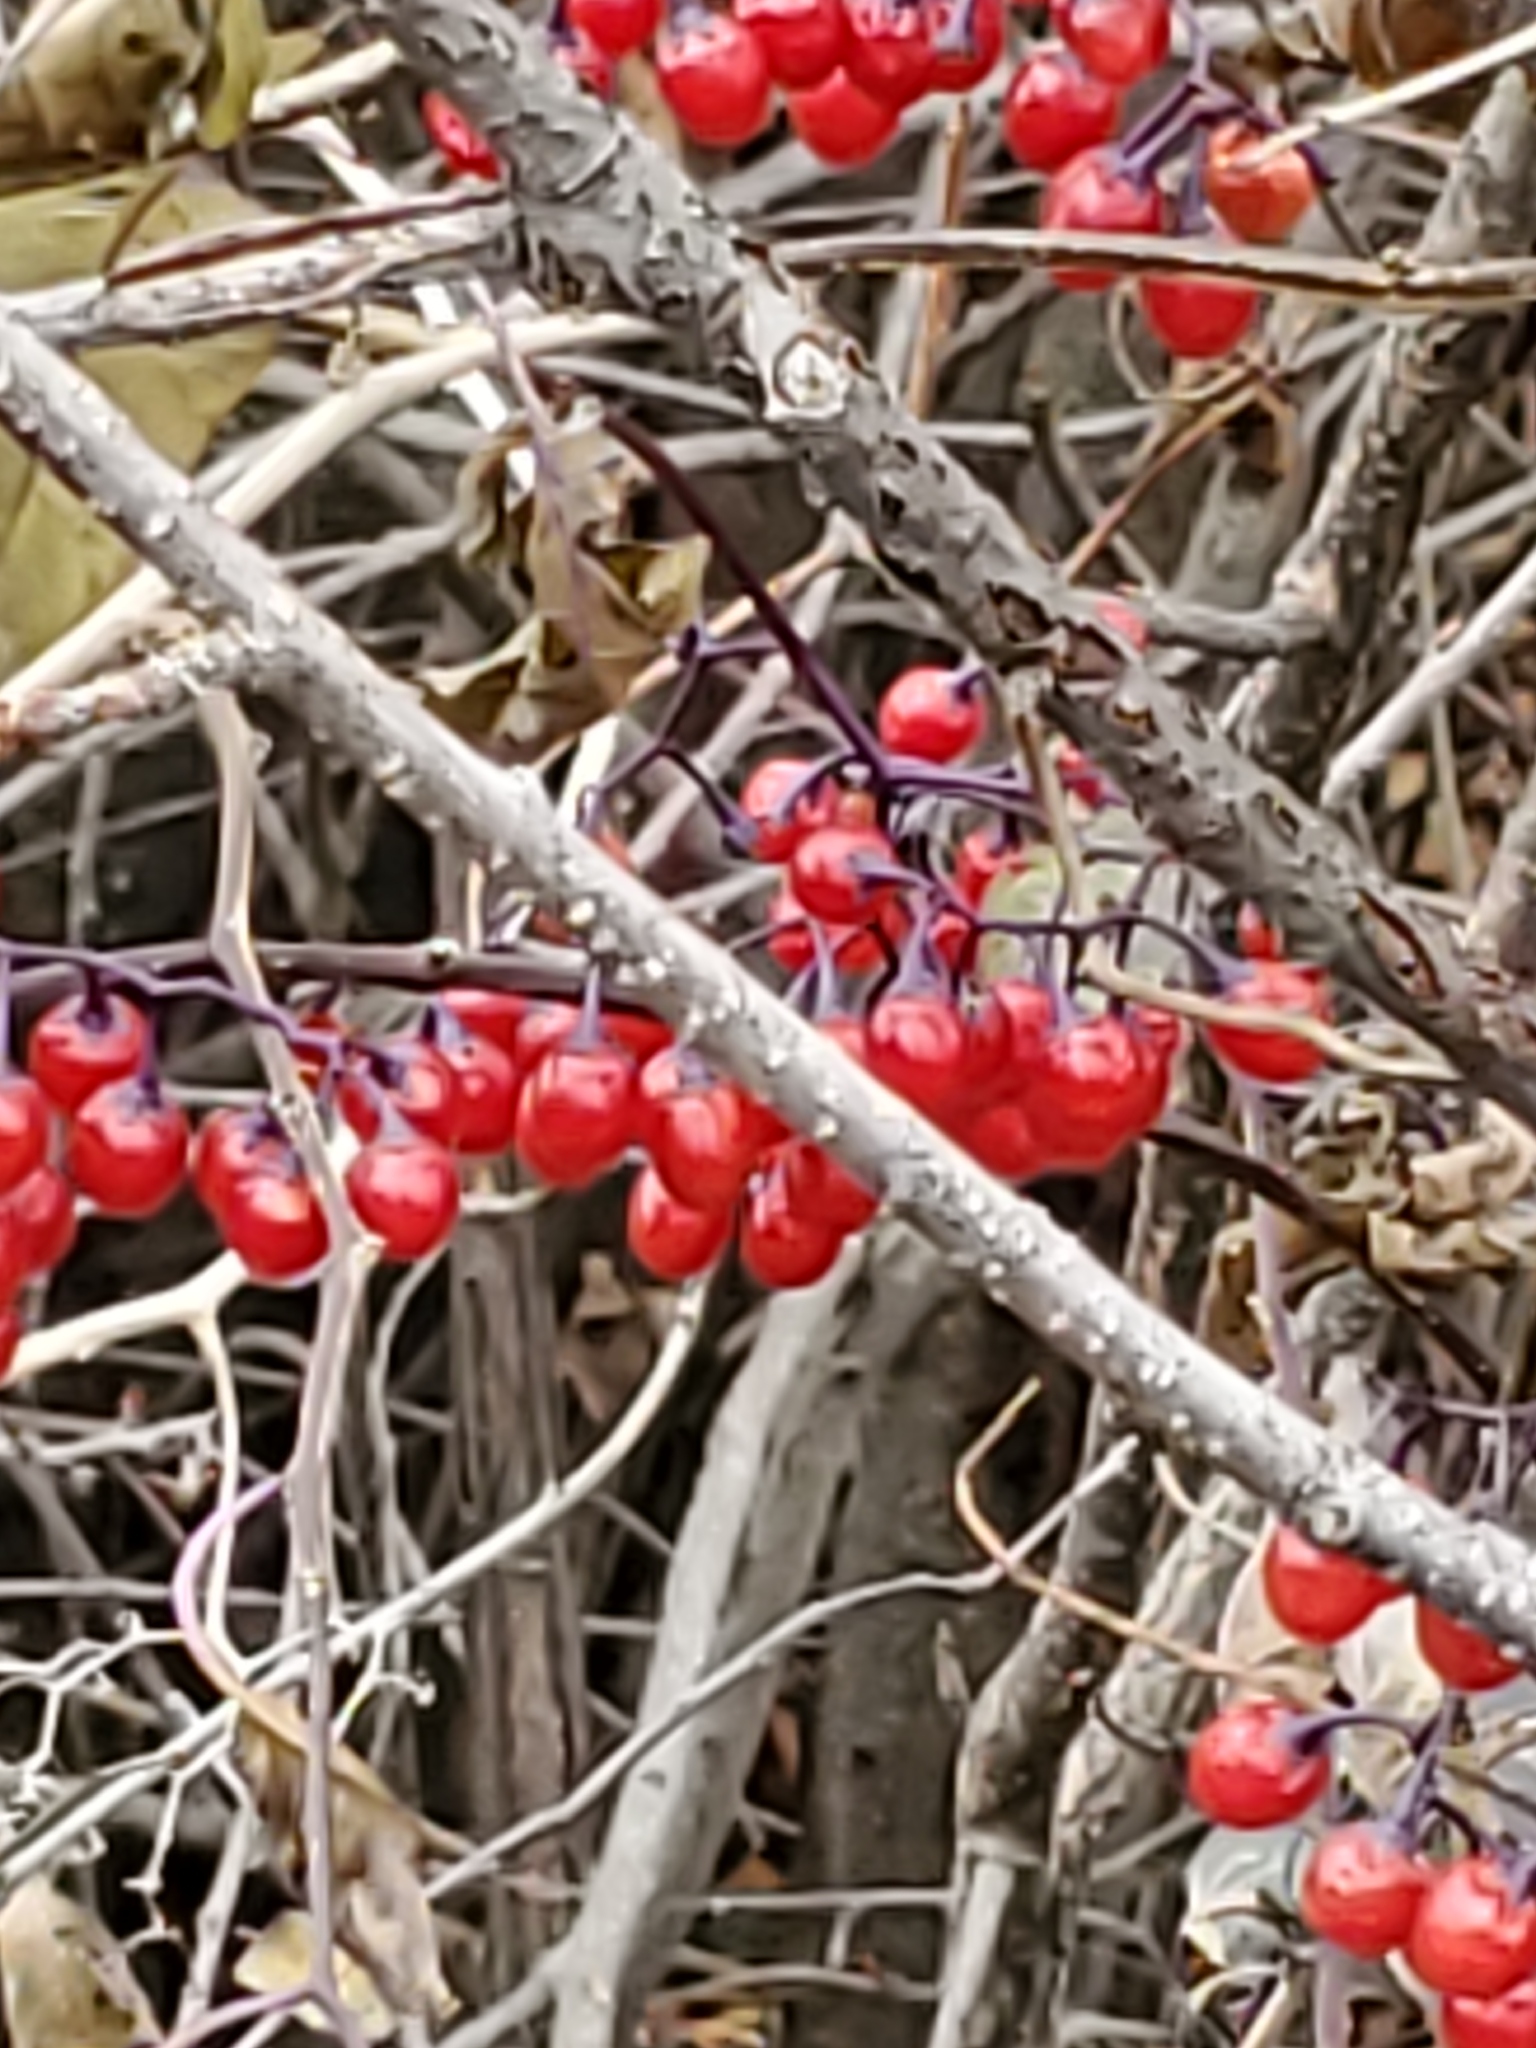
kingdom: Plantae
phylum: Tracheophyta
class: Magnoliopsida
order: Solanales
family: Solanaceae
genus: Solanum
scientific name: Solanum dulcamara
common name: Climbing nightshade
